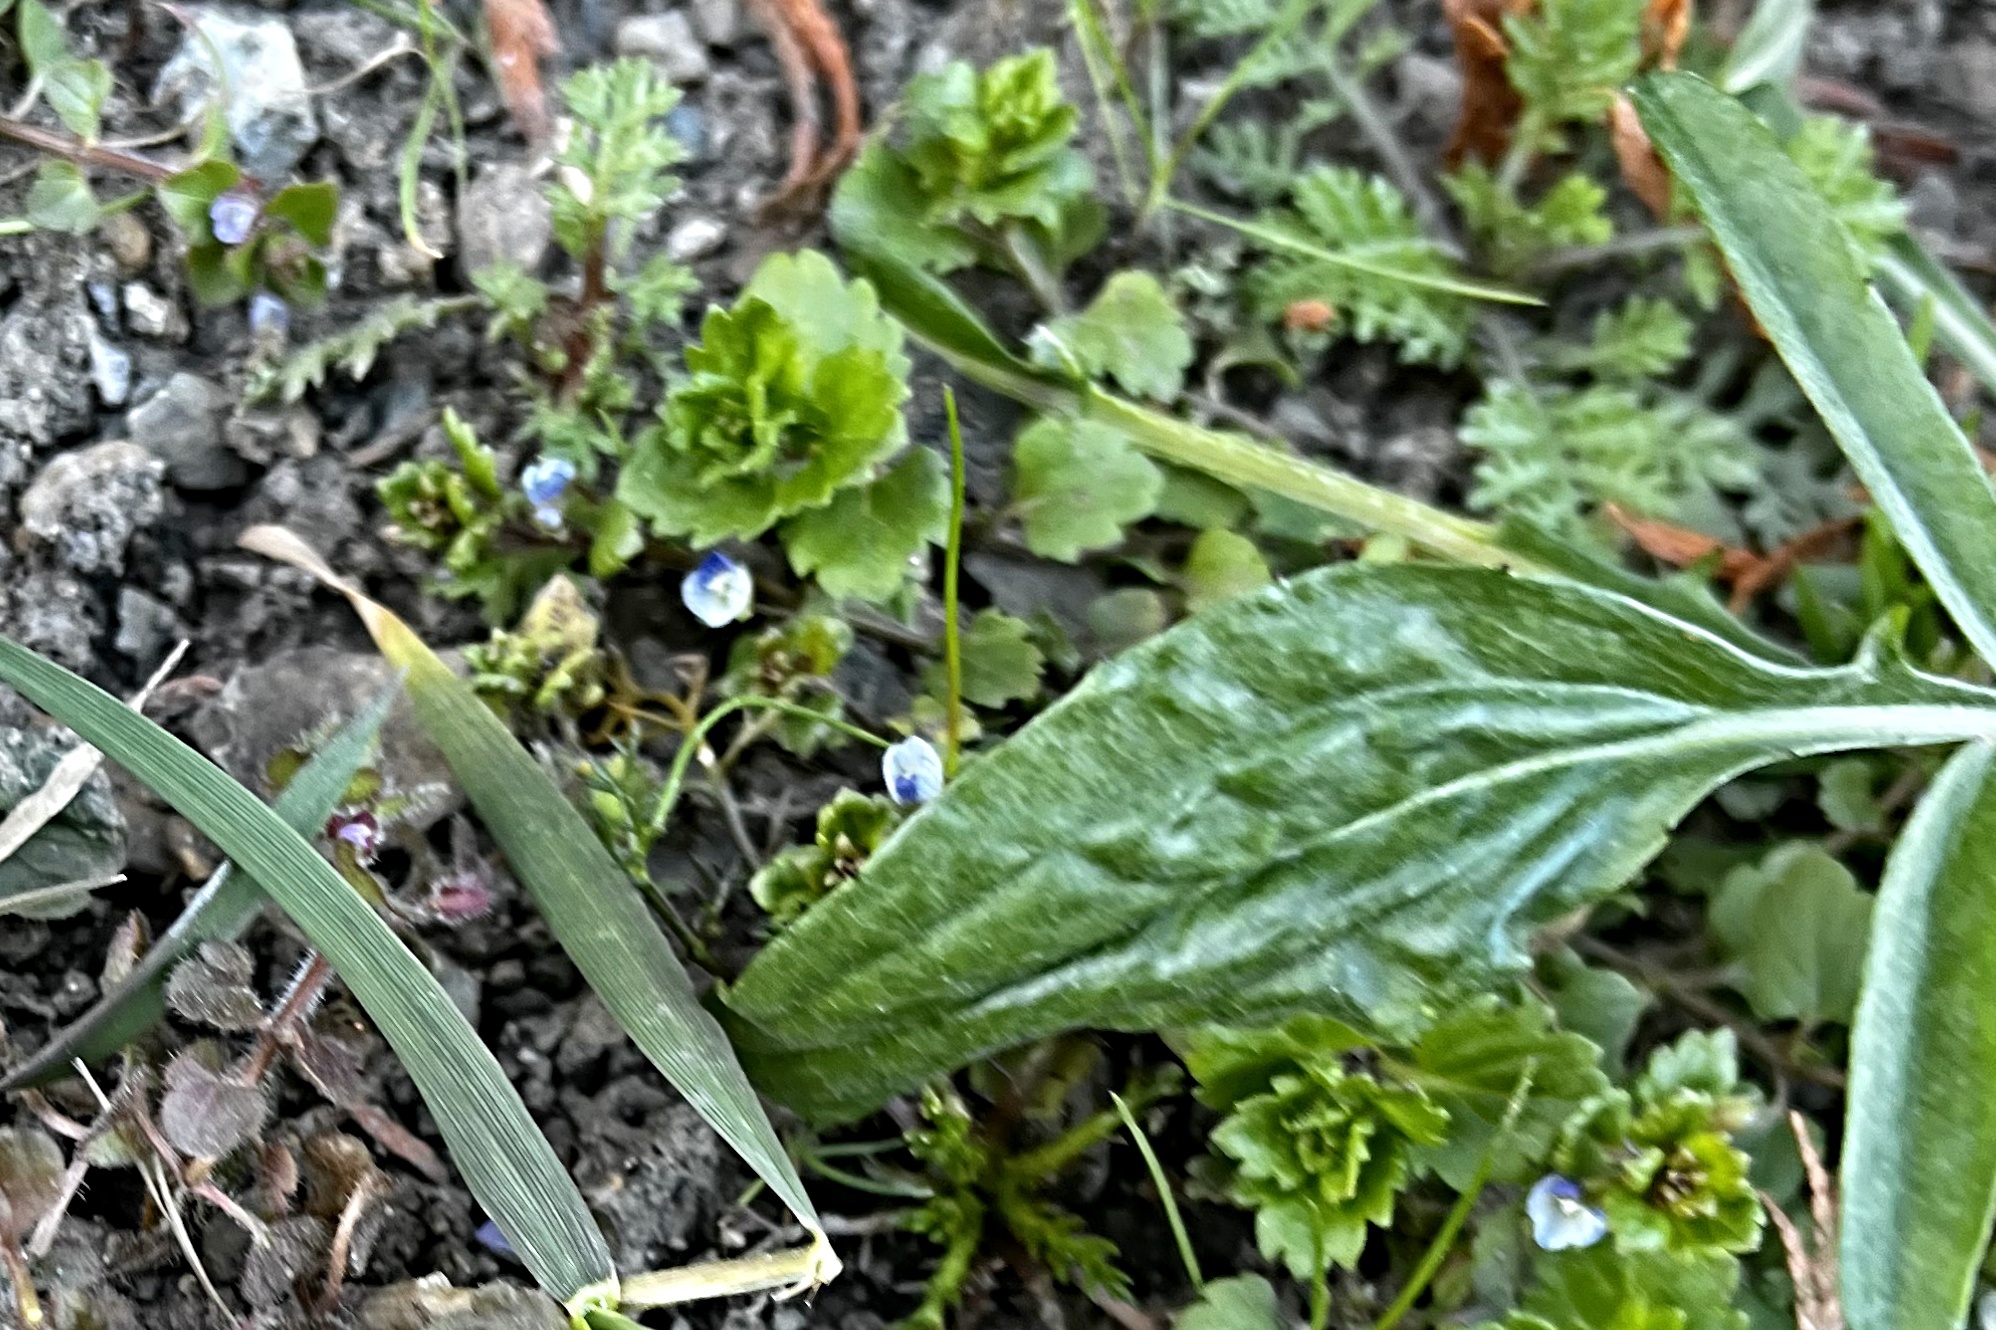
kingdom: Plantae
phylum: Tracheophyta
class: Magnoliopsida
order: Lamiales
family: Plantaginaceae
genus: Veronica
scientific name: Veronica persica
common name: Common field-speedwell
